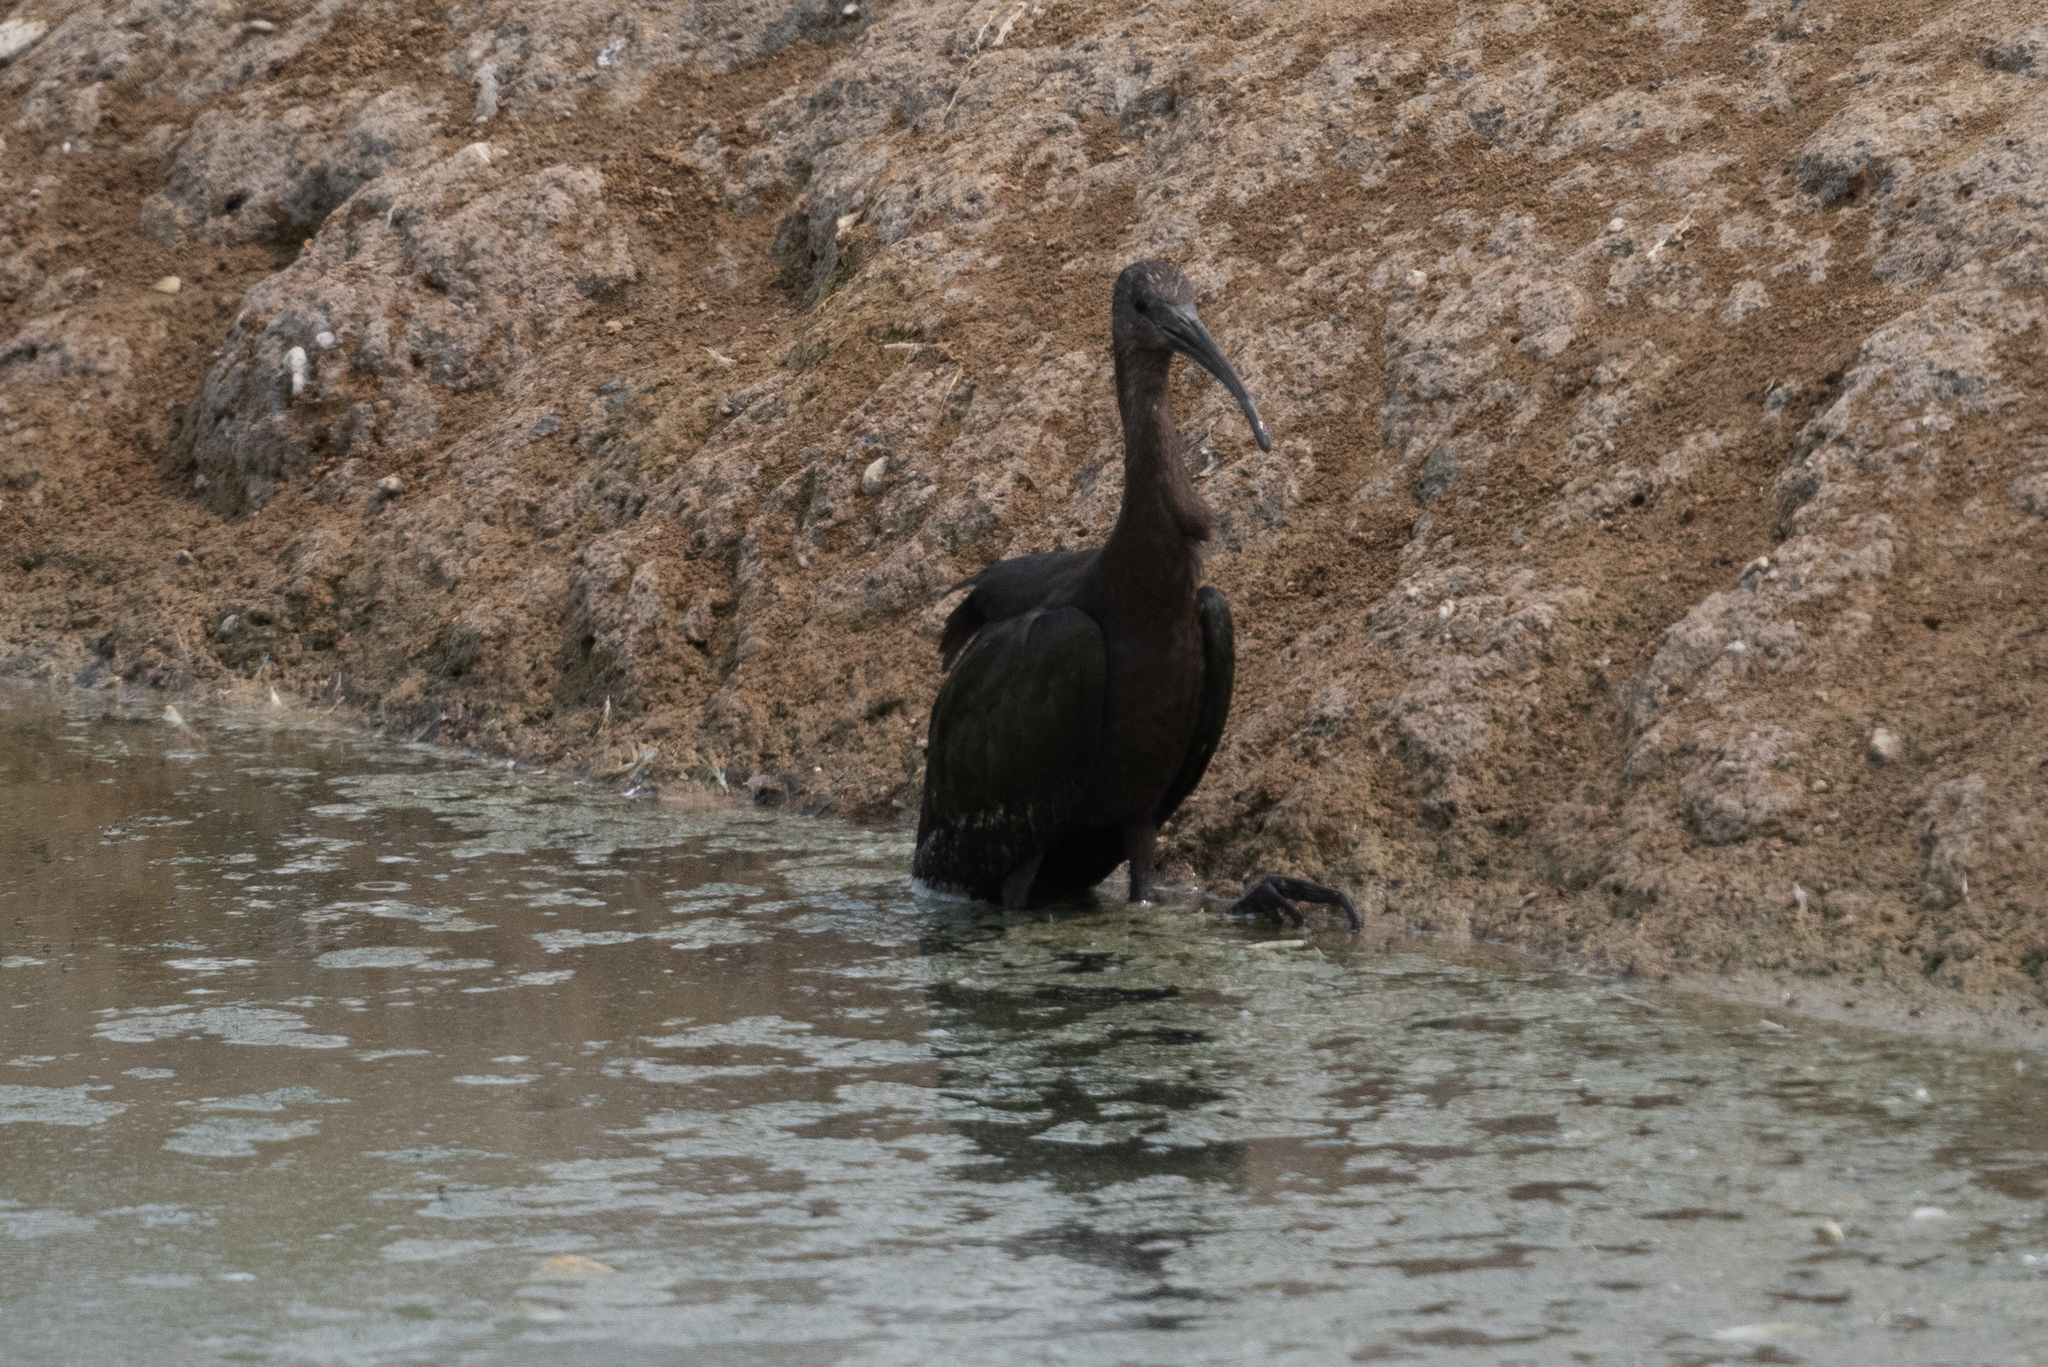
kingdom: Animalia
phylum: Chordata
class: Aves
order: Pelecaniformes
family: Threskiornithidae
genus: Plegadis
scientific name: Plegadis chihi
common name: White-faced ibis
